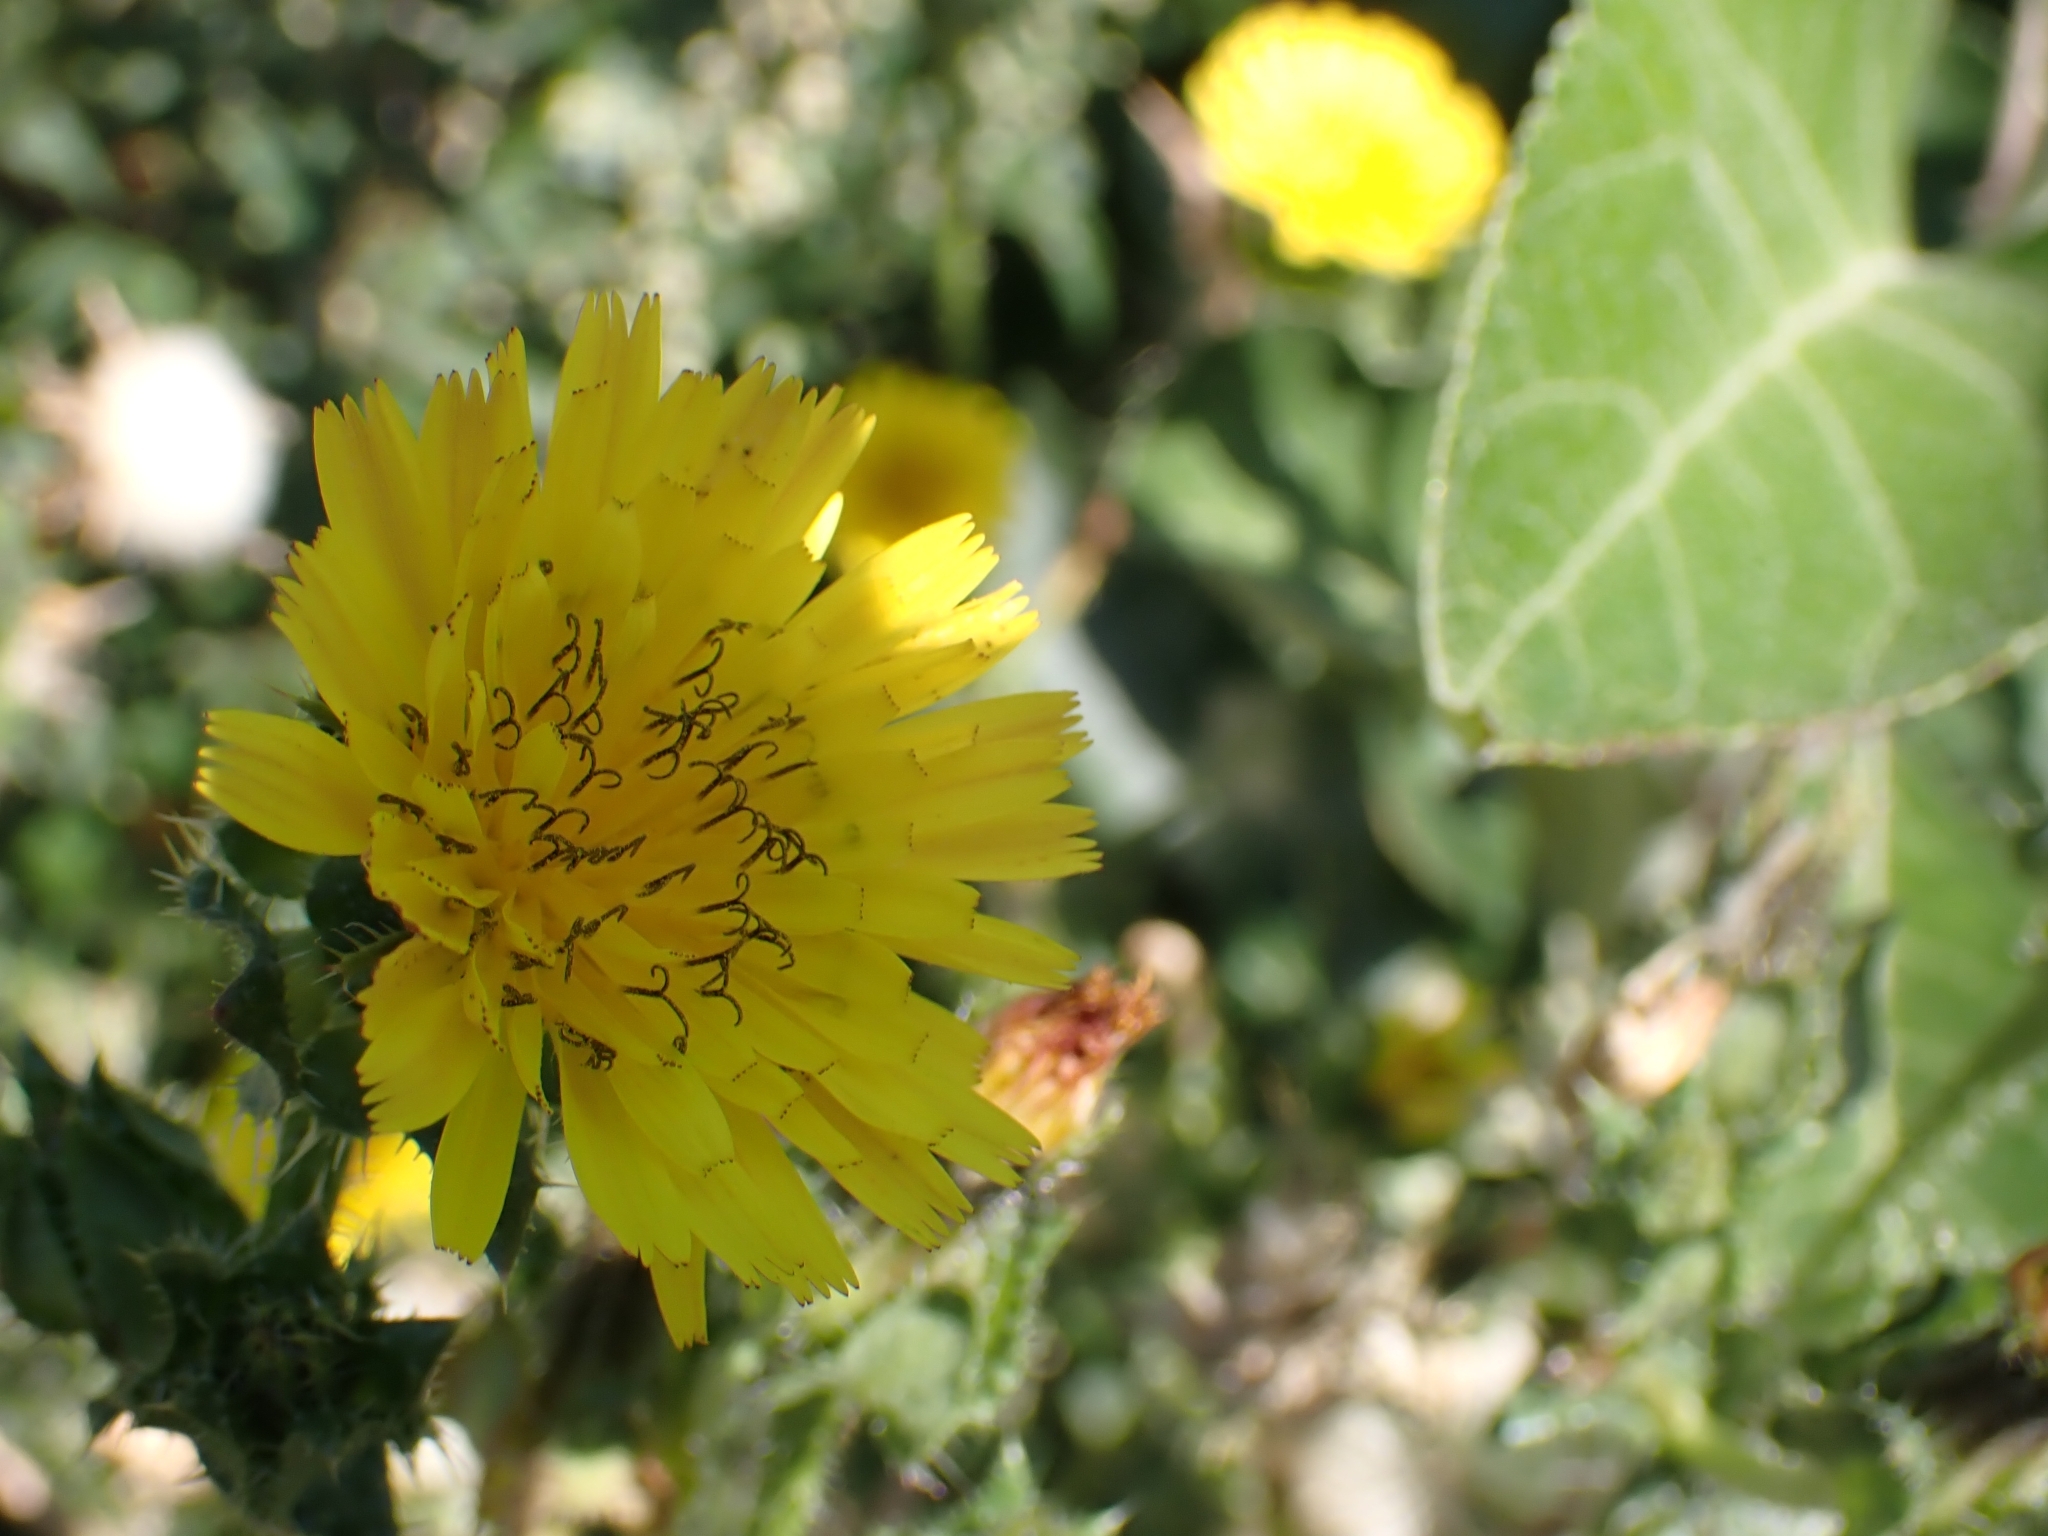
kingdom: Plantae
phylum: Tracheophyta
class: Magnoliopsida
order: Asterales
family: Asteraceae
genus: Helminthotheca
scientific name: Helminthotheca echioides
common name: Ox-tongue
